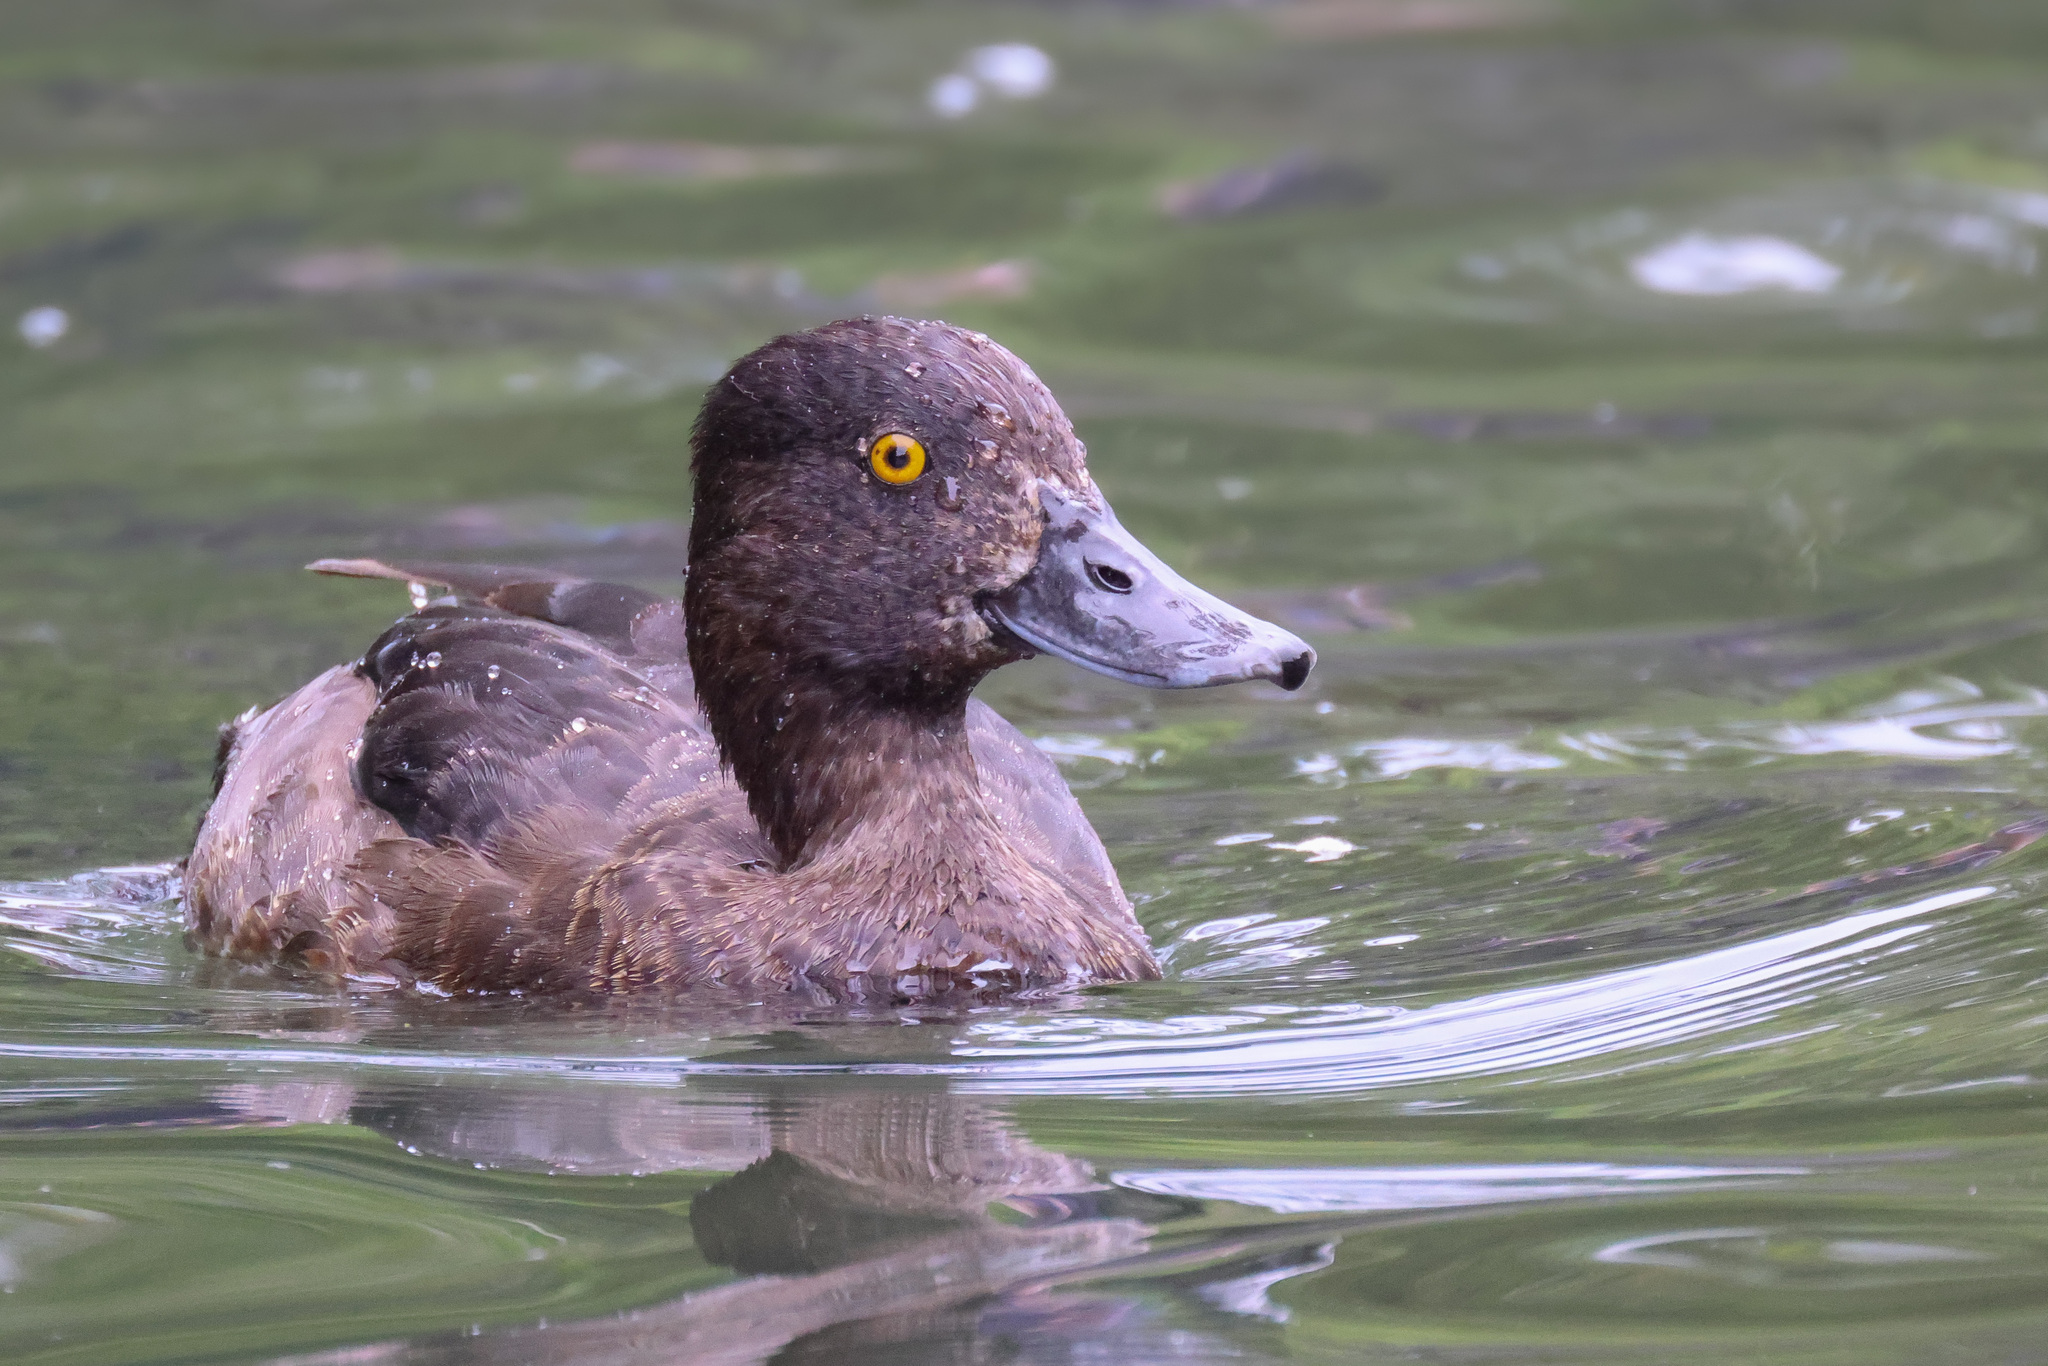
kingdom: Animalia
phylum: Chordata
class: Aves
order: Anseriformes
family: Anatidae
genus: Aythya
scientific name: Aythya fuligula
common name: Tufted duck
